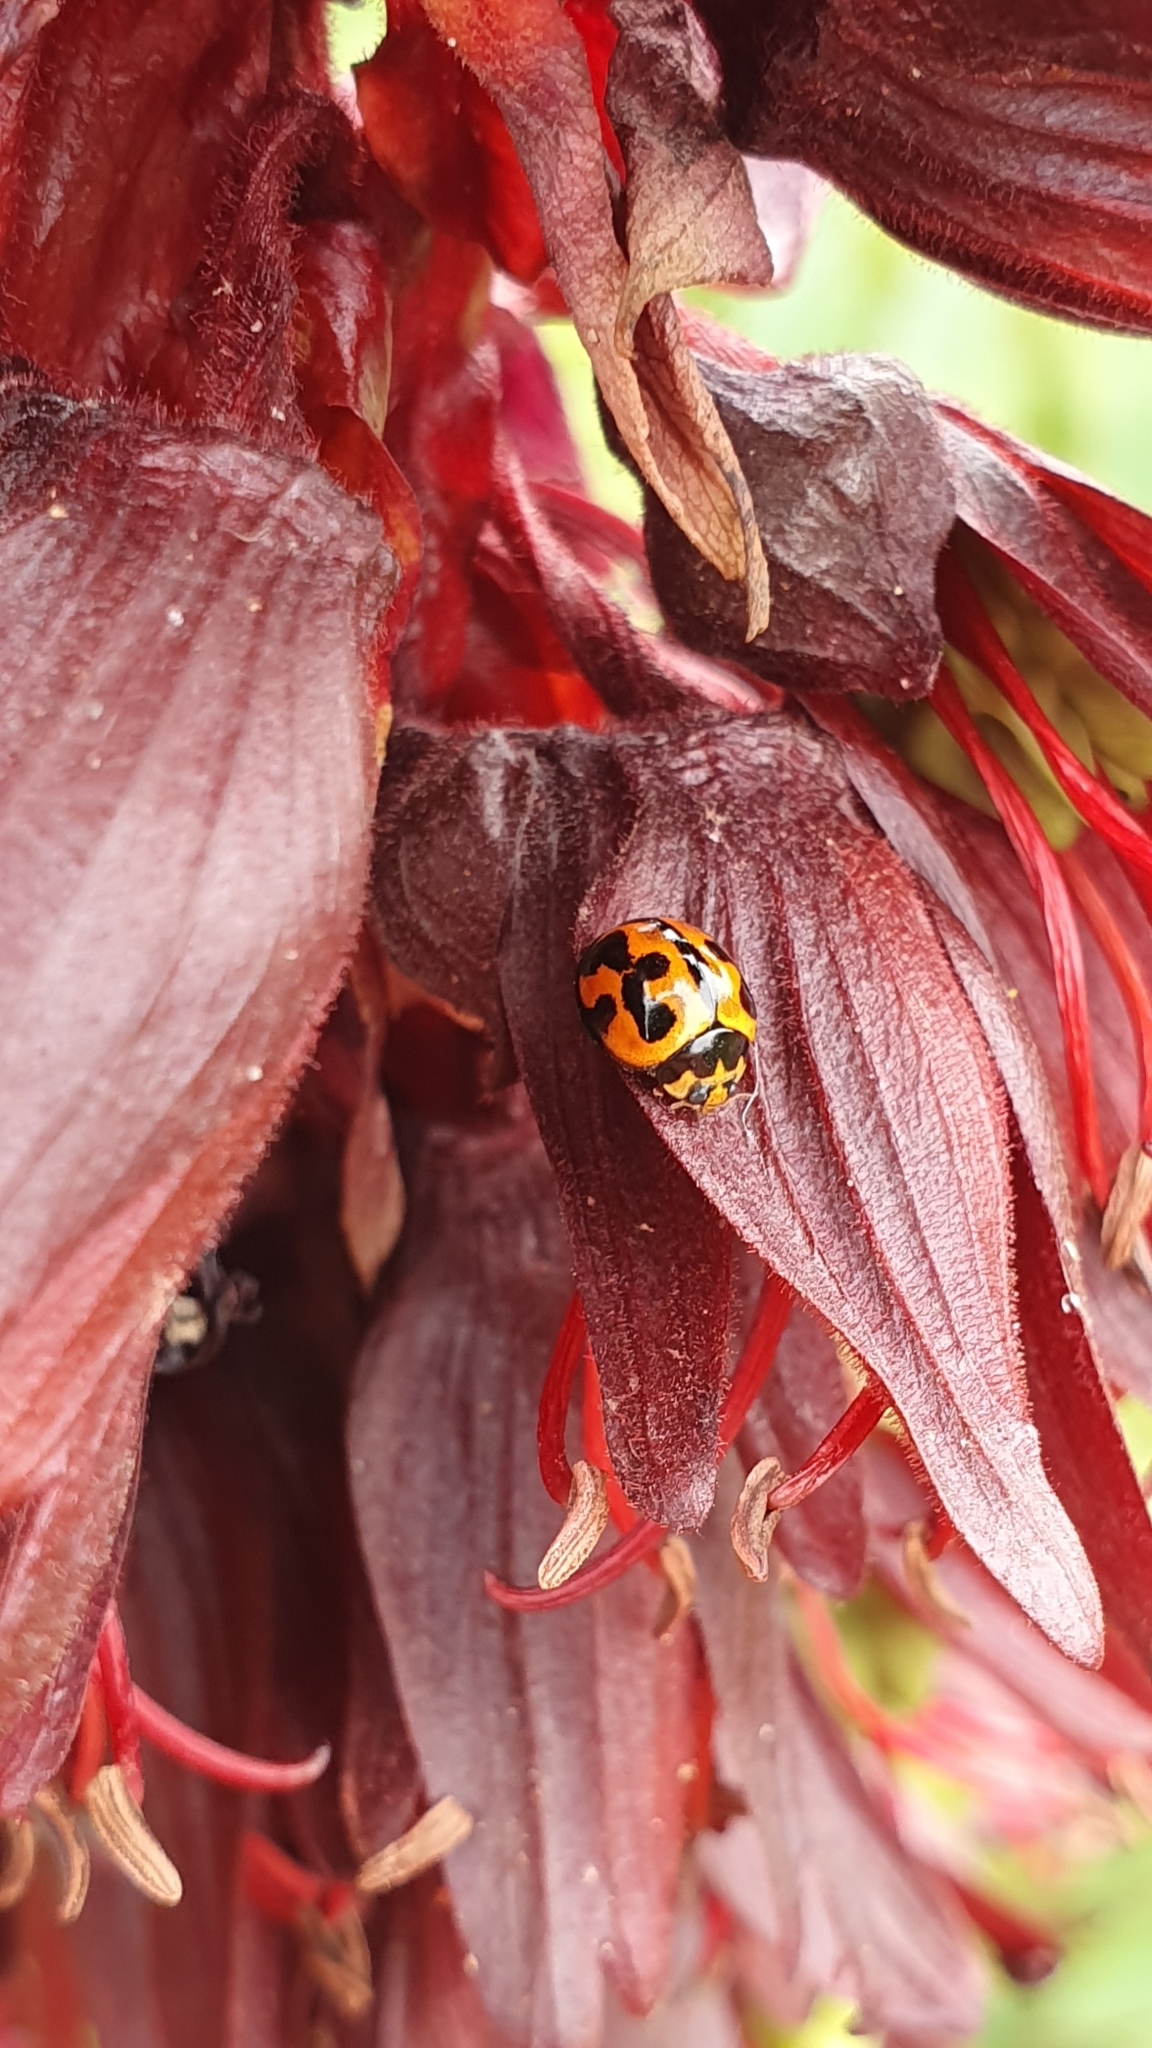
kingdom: Animalia
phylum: Arthropoda
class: Insecta
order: Coleoptera
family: Coccinellidae
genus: Coelophora
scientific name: Coelophora inaequalis
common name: Common australian lady beetle
